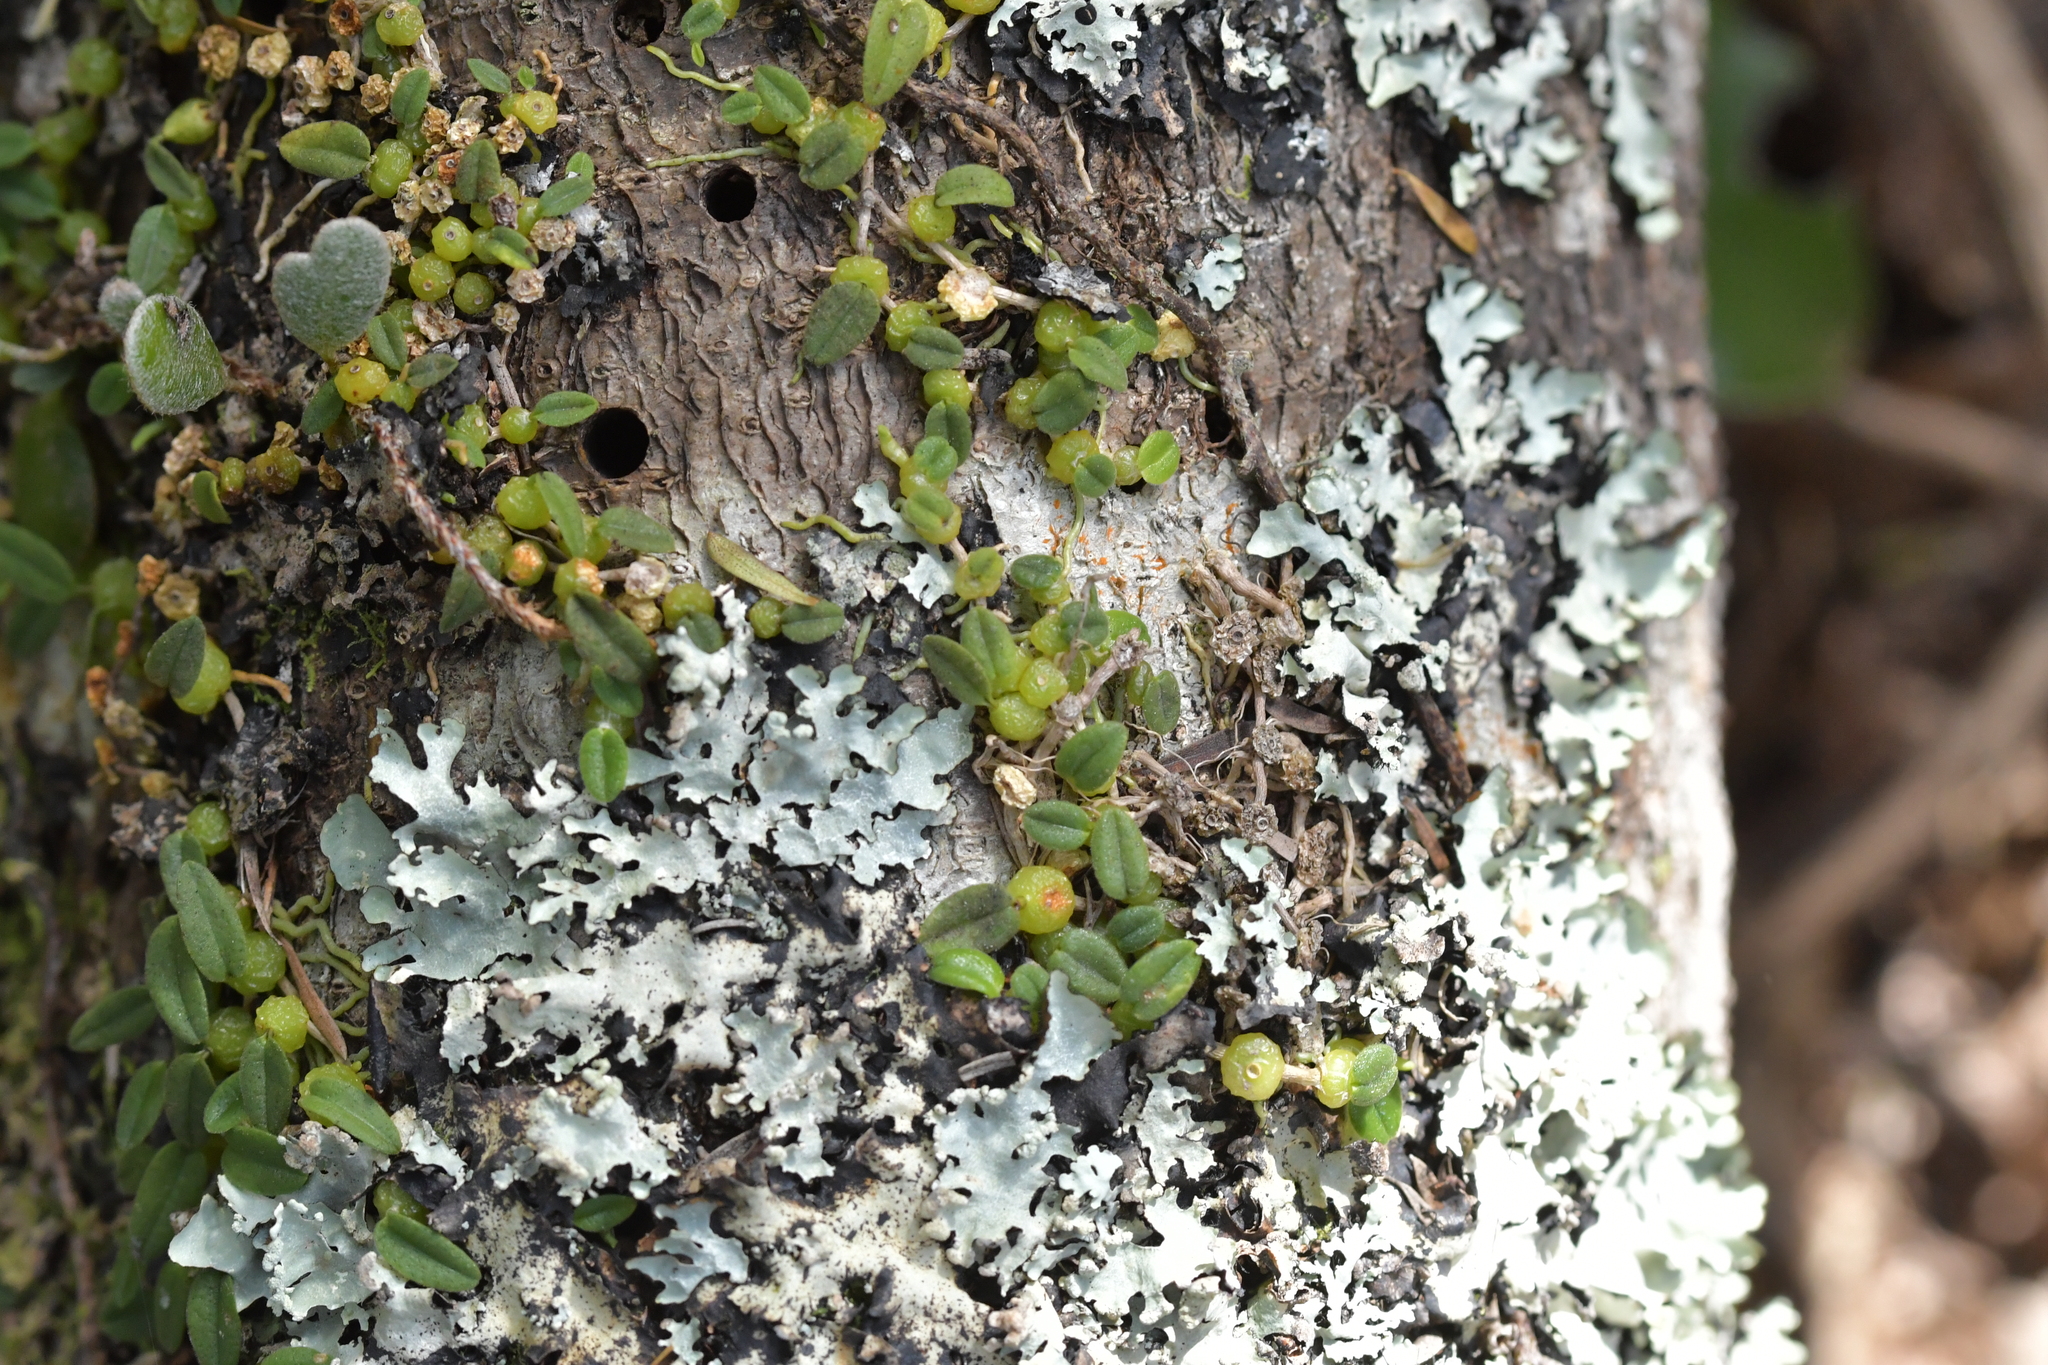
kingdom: Plantae
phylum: Tracheophyta
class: Liliopsida
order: Asparagales
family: Orchidaceae
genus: Bulbophyllum
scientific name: Bulbophyllum pygmaeum
